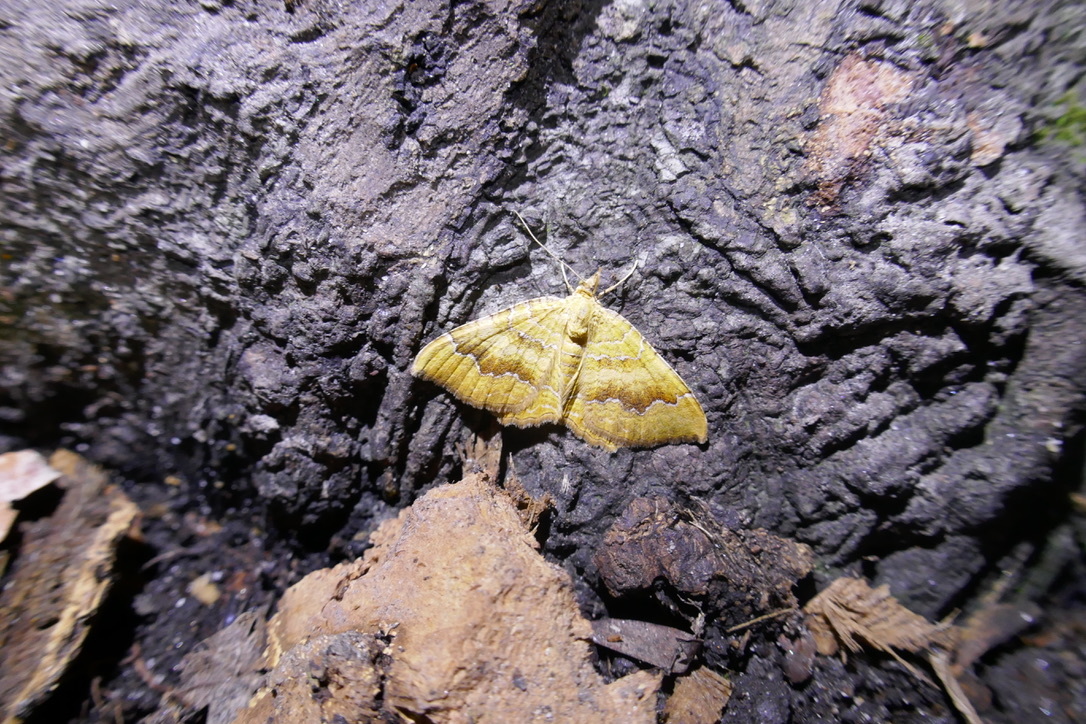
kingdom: Animalia
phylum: Arthropoda
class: Insecta
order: Lepidoptera
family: Geometridae
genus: Camptogramma
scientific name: Camptogramma bilineata
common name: Yellow shell
